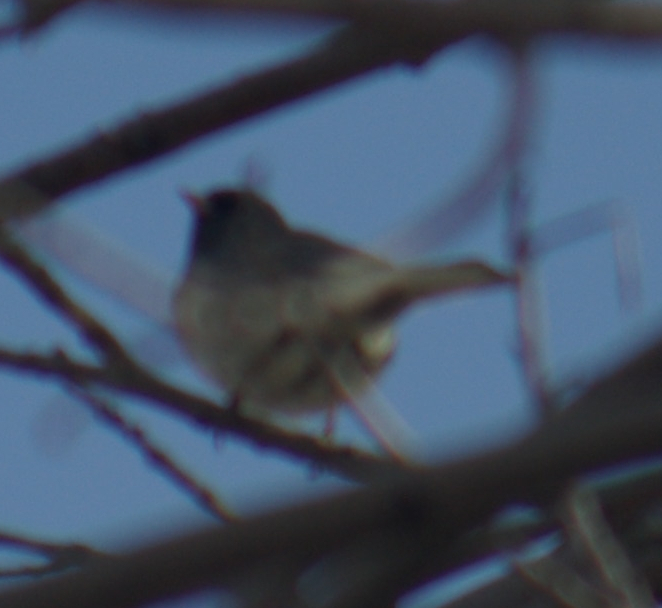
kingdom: Animalia
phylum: Chordata
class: Aves
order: Passeriformes
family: Passerellidae
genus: Junco
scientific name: Junco hyemalis
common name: Dark-eyed junco
